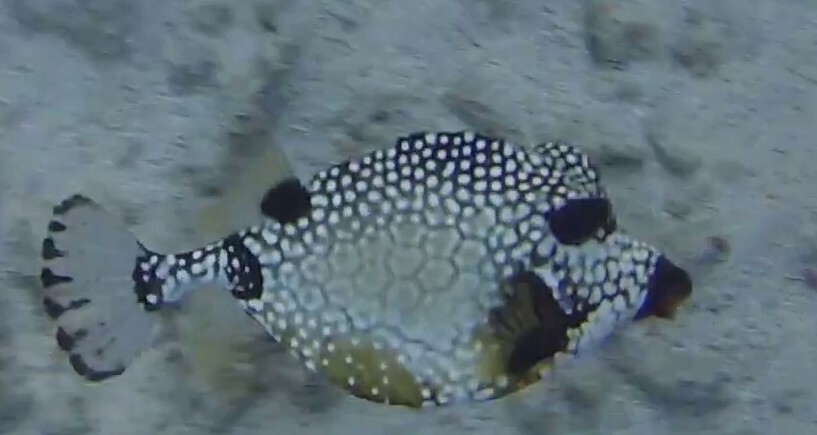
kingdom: Animalia
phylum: Chordata
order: Tetraodontiformes
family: Ostraciidae
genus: Lactophrys
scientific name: Lactophrys triqueter
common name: Smooth trunkfish
